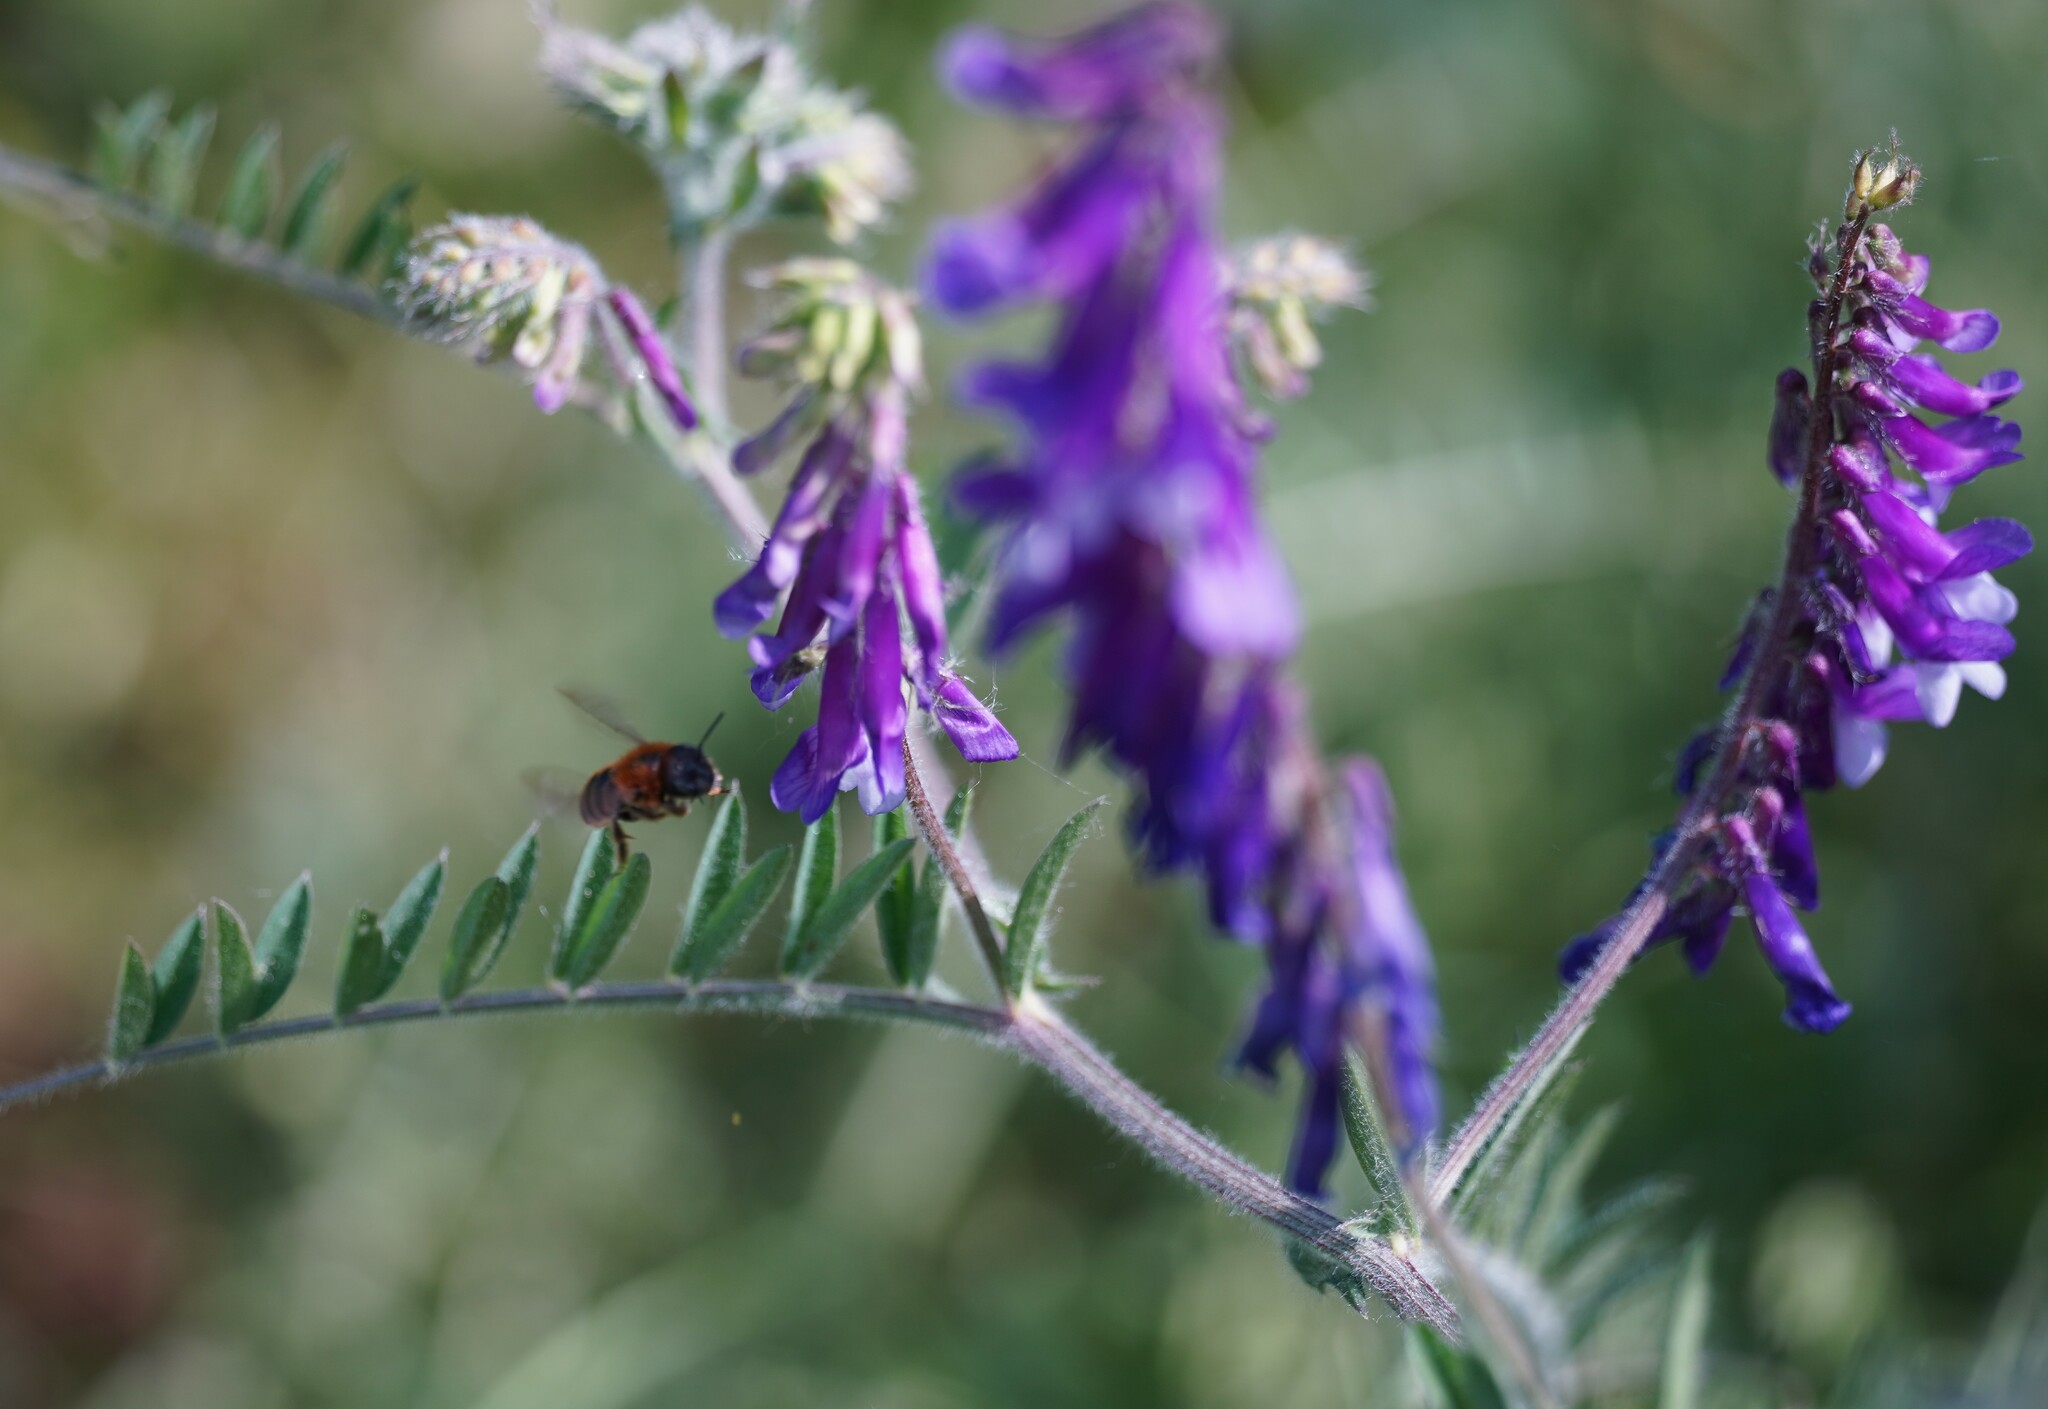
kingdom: Plantae
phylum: Tracheophyta
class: Magnoliopsida
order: Fabales
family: Fabaceae
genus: Vicia
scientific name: Vicia villosa
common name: Fodder vetch
